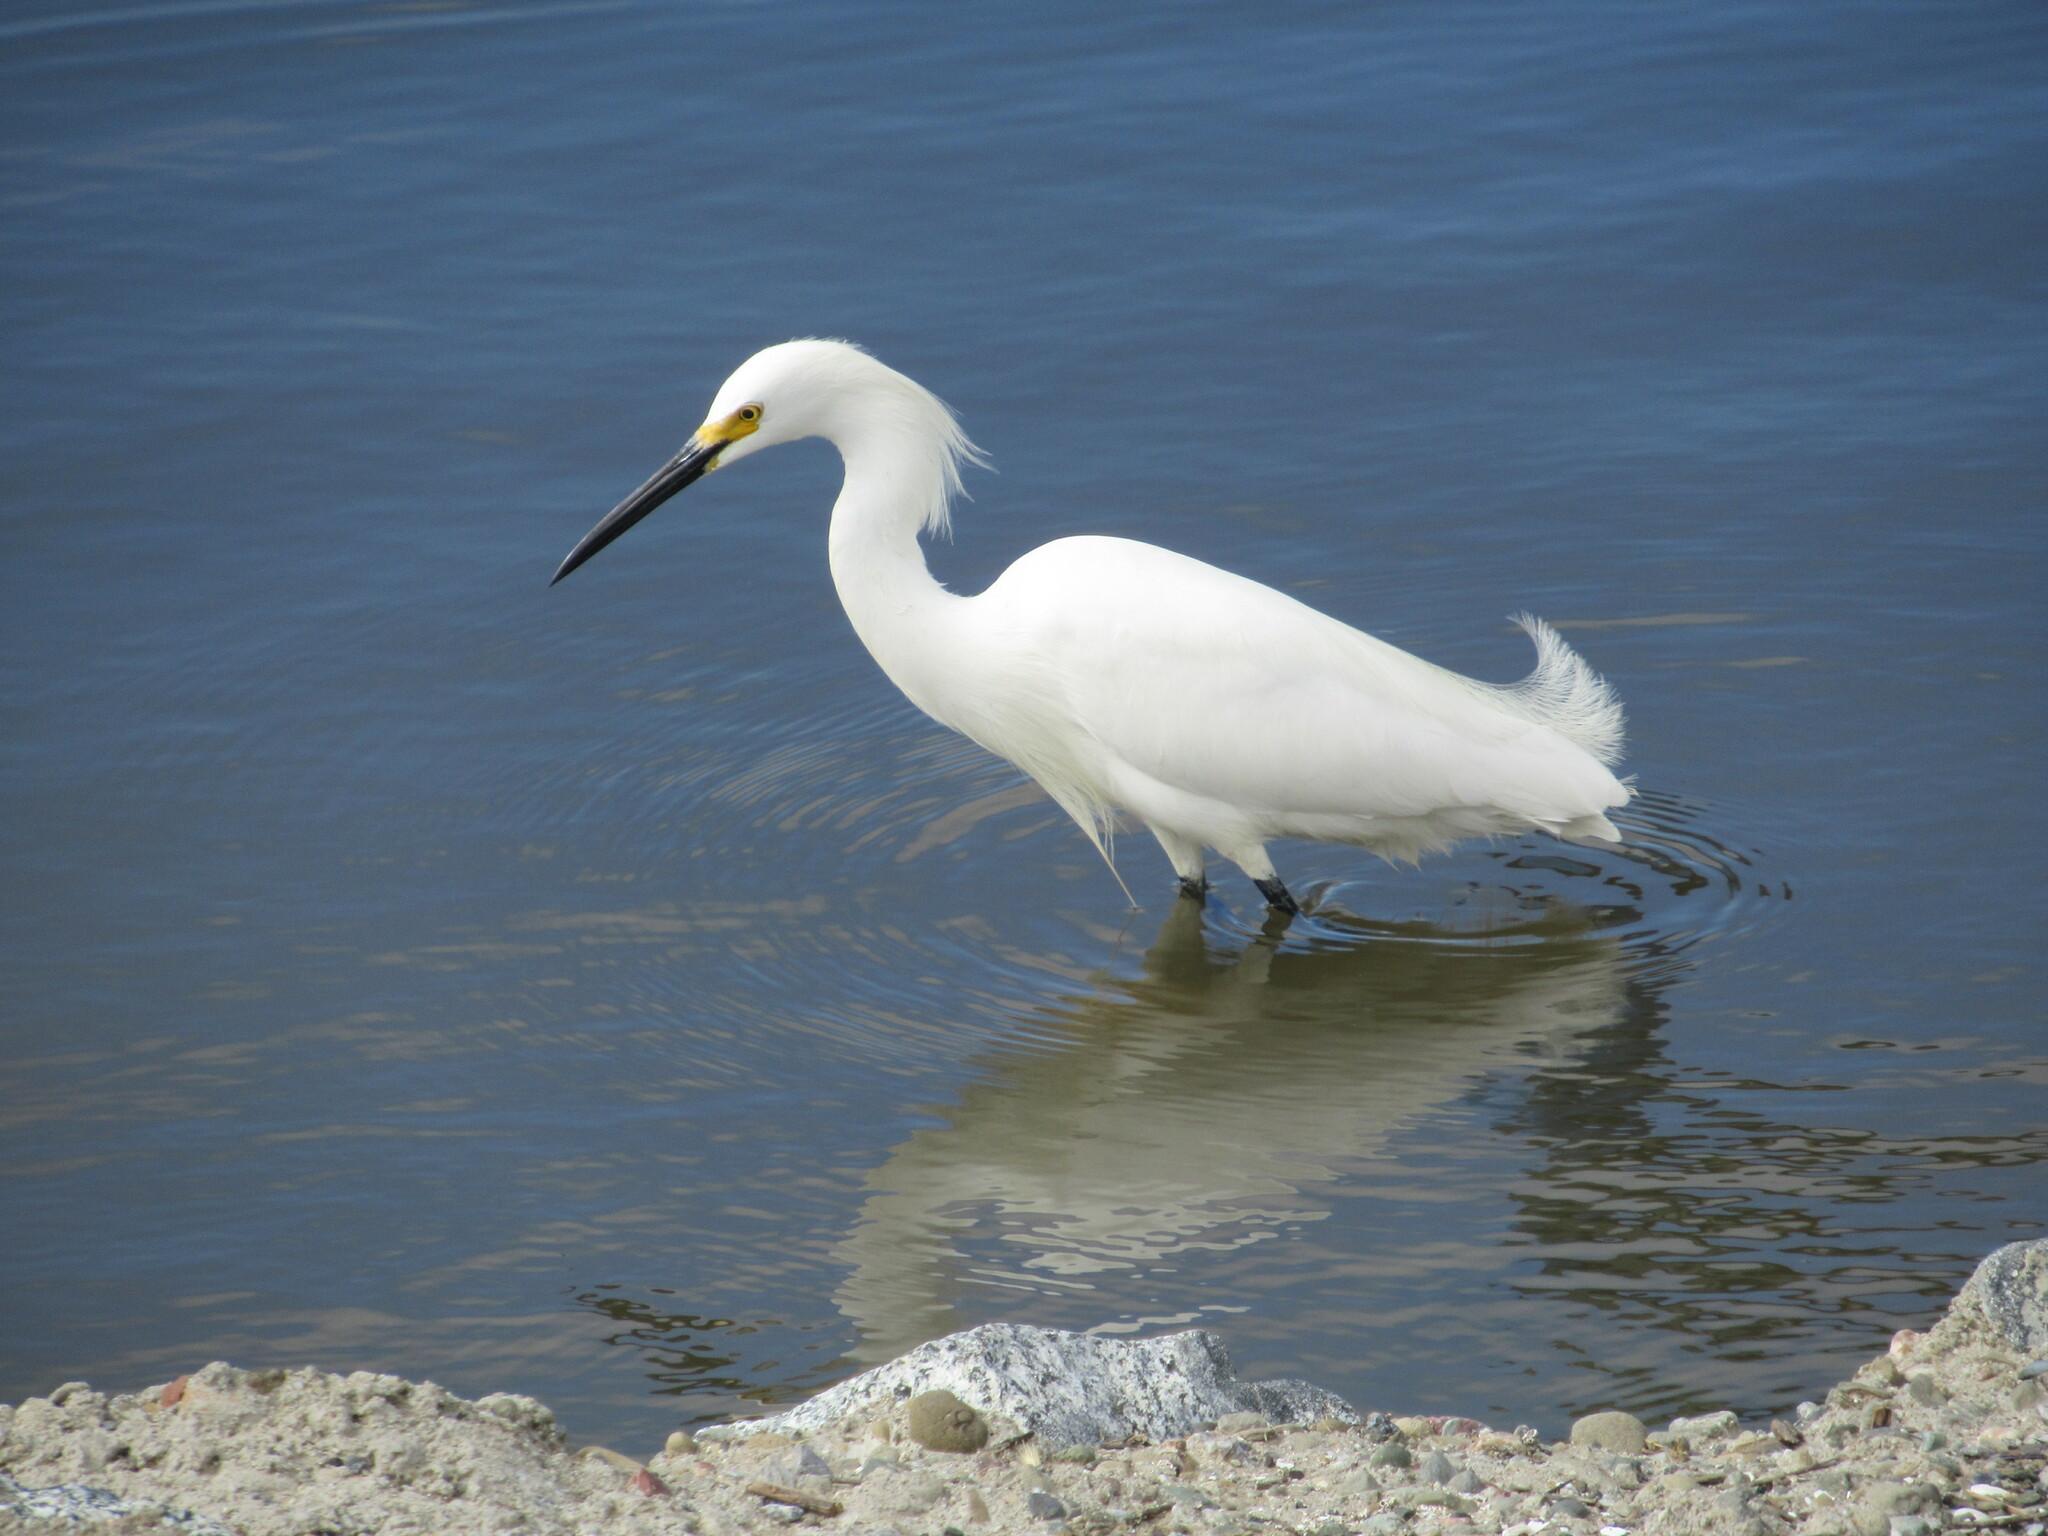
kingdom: Animalia
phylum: Chordata
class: Aves
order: Pelecaniformes
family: Ardeidae
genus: Egretta
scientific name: Egretta thula
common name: Snowy egret
